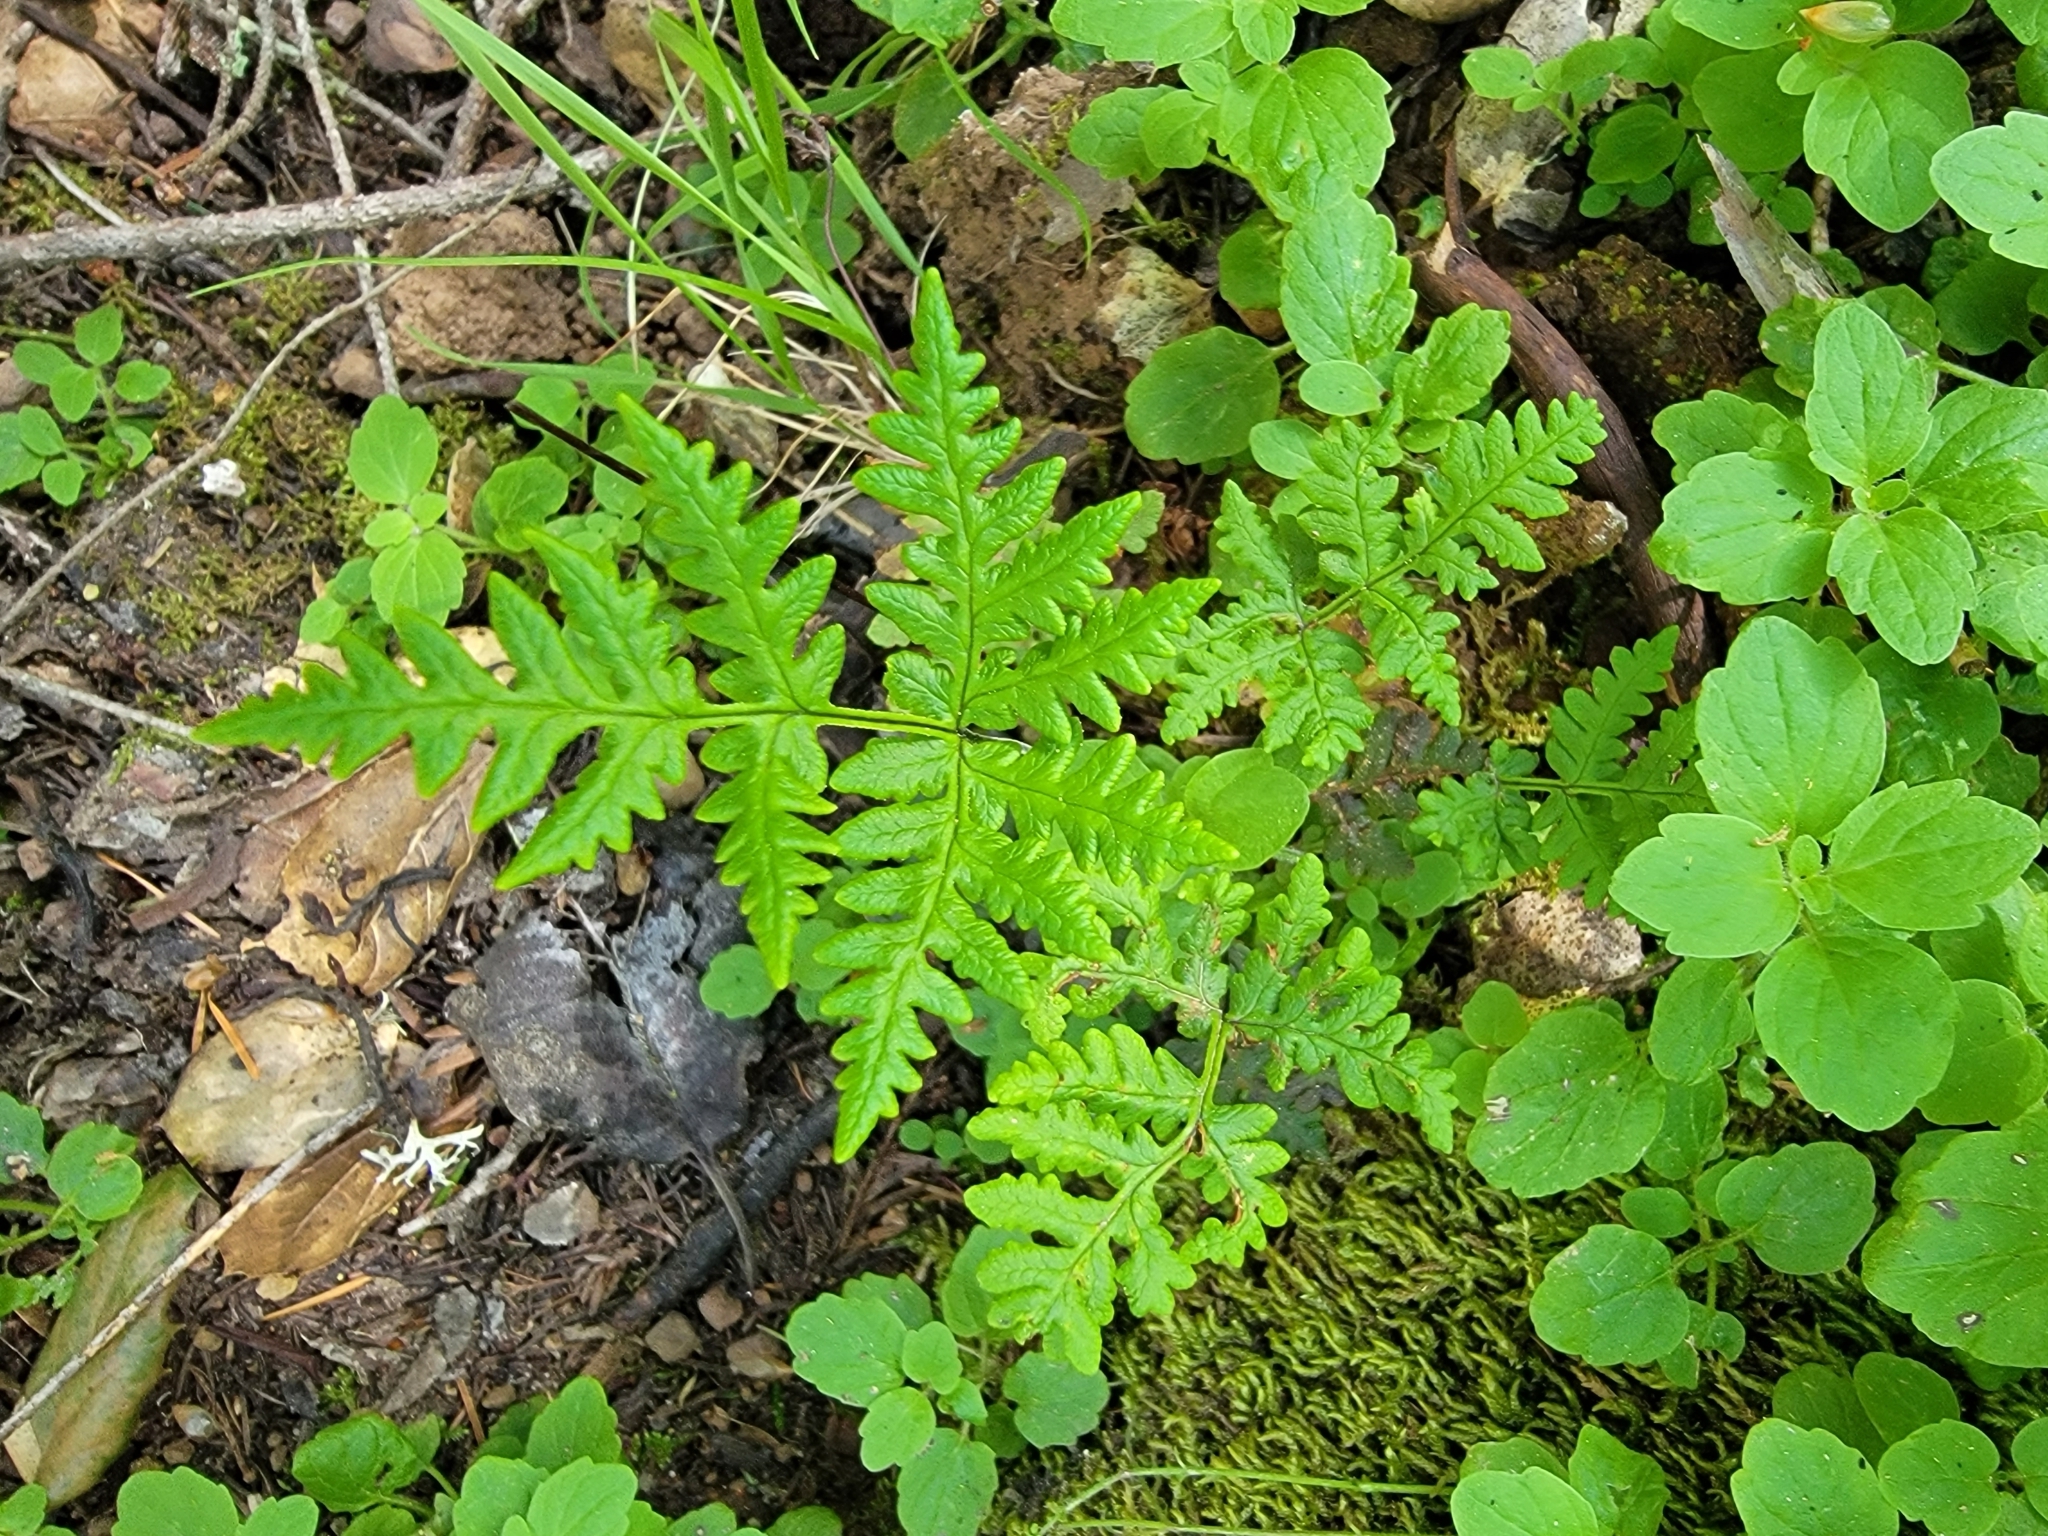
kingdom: Plantae
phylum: Tracheophyta
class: Polypodiopsida
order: Polypodiales
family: Pteridaceae
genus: Pentagramma
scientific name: Pentagramma triangularis
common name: Gold fern
